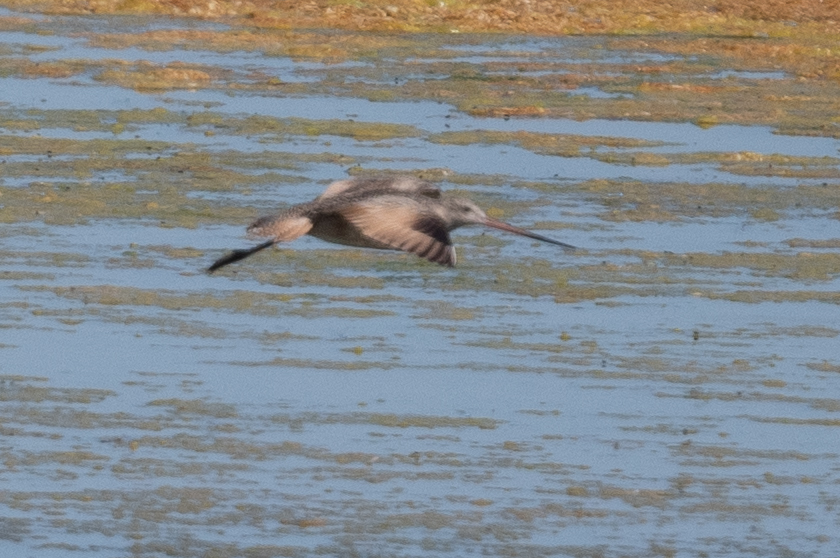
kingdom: Animalia
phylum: Chordata
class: Aves
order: Charadriiformes
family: Scolopacidae
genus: Limosa
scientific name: Limosa fedoa
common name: Marbled godwit
